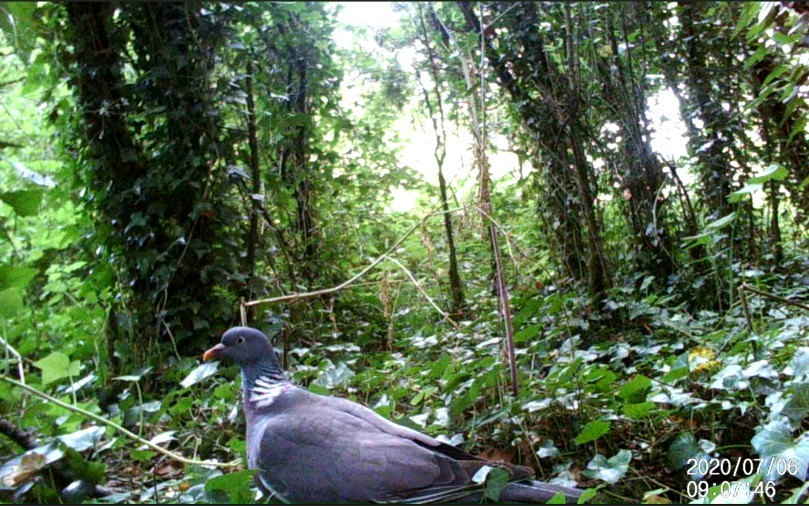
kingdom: Animalia
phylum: Chordata
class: Aves
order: Columbiformes
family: Columbidae
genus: Columba
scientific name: Columba palumbus
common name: Common wood pigeon
